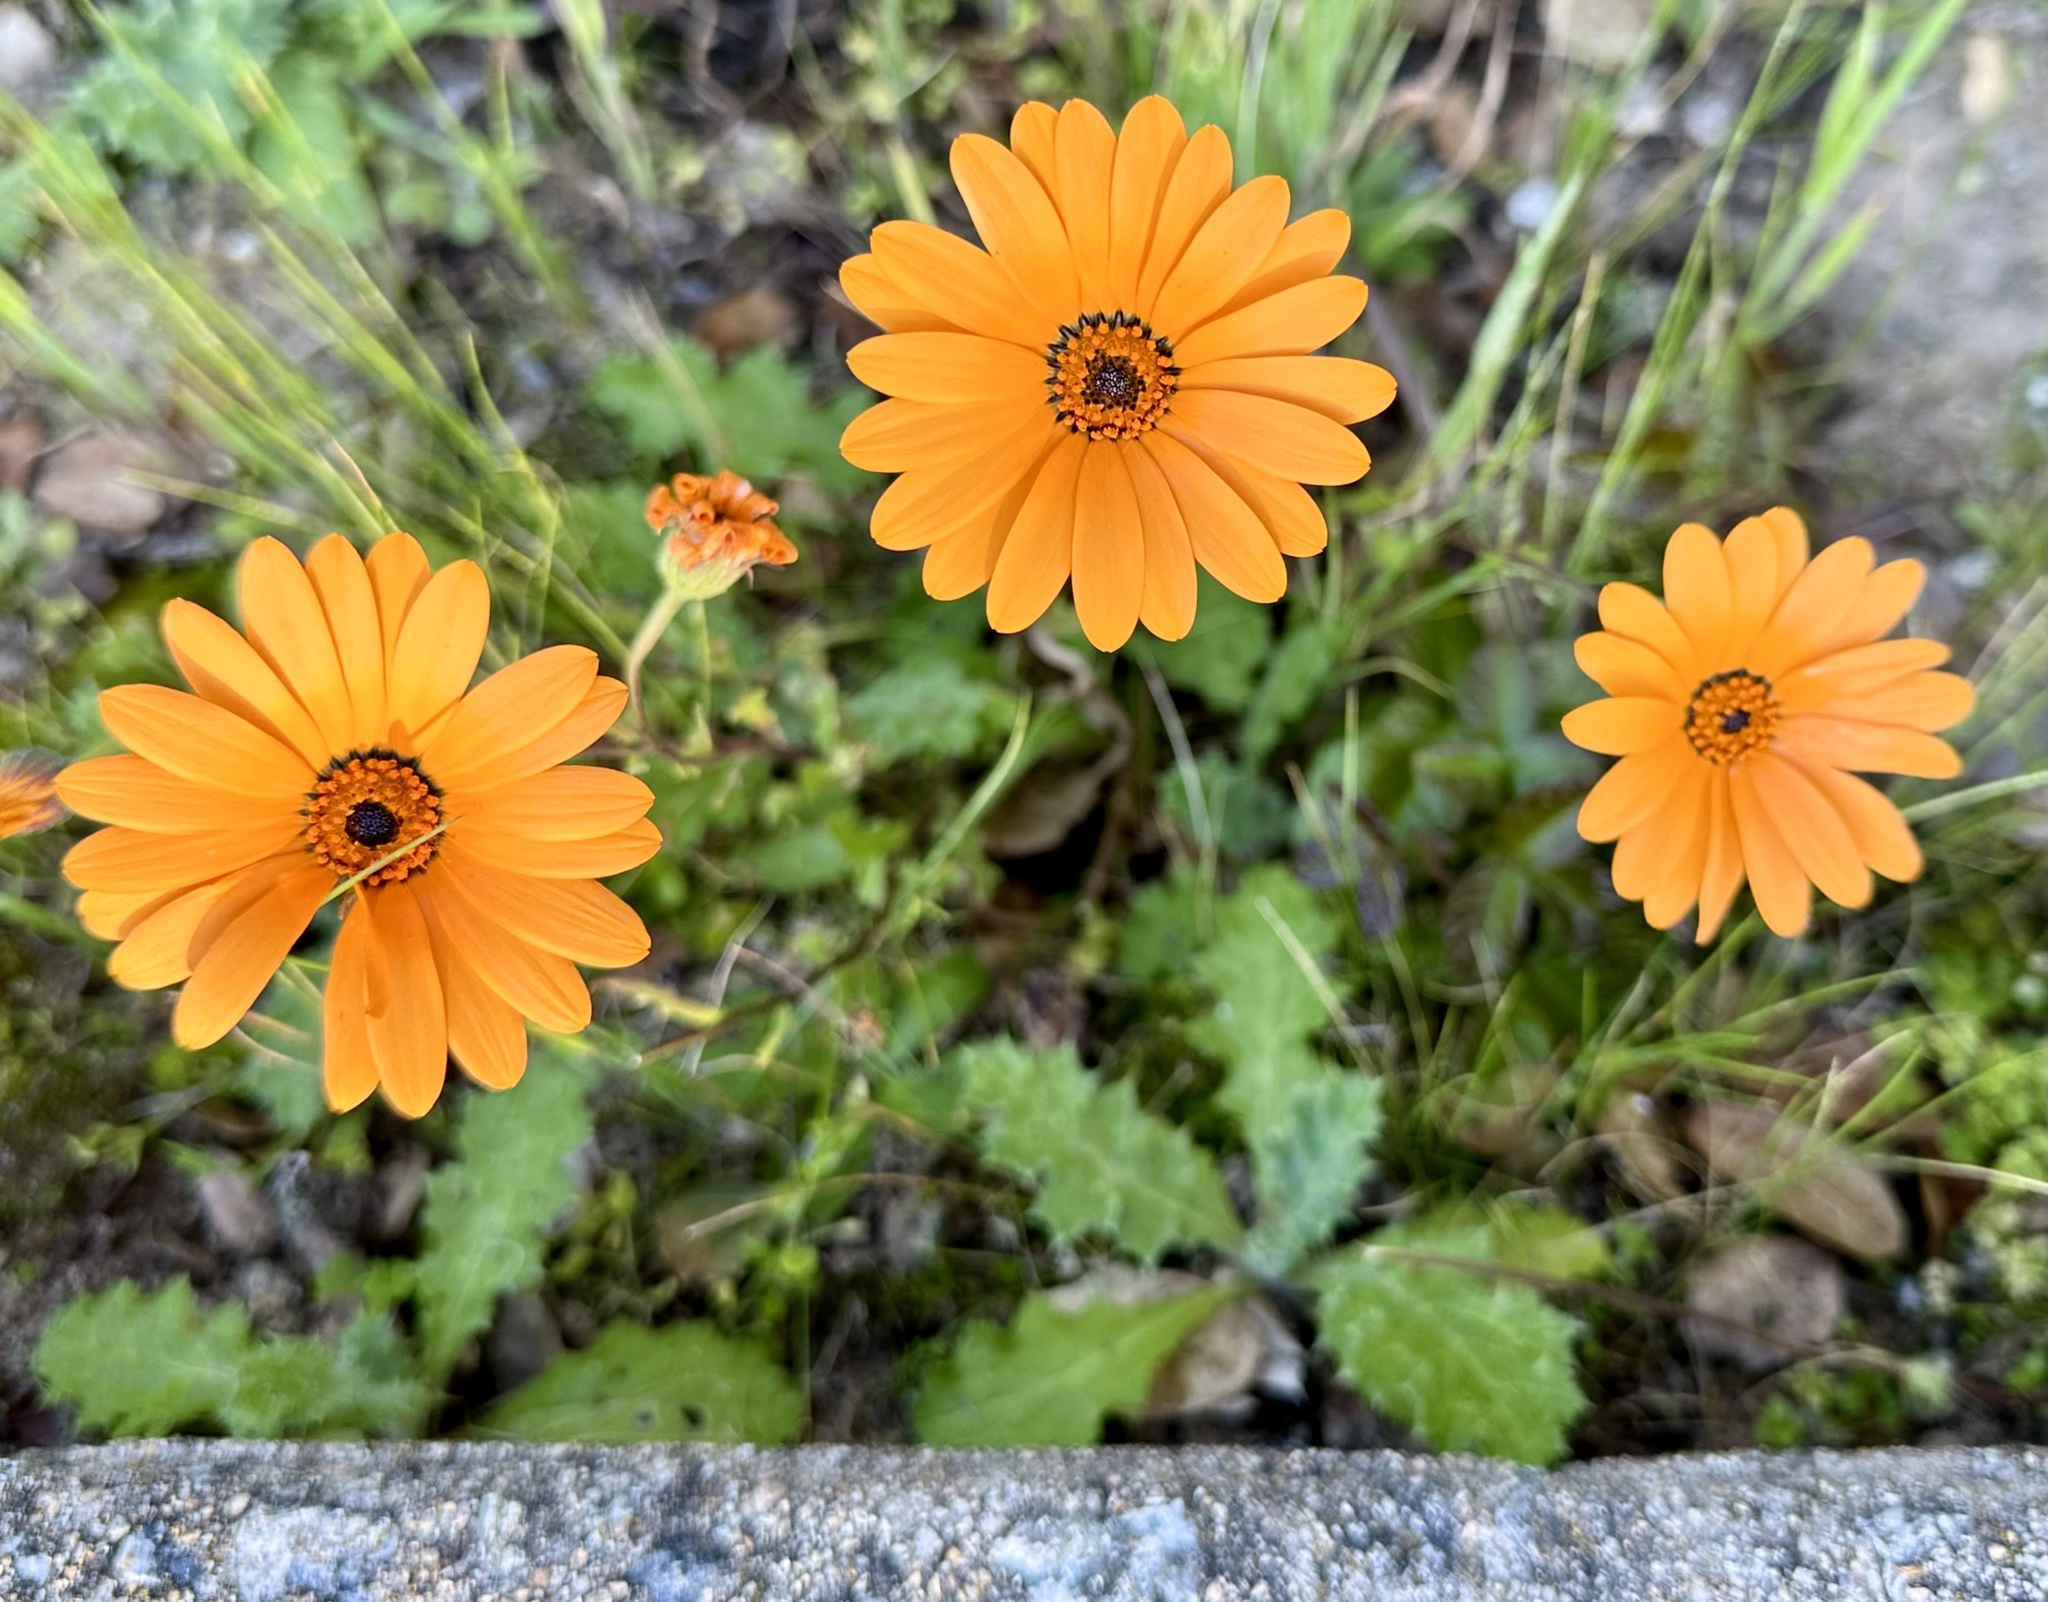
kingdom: Plantae
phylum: Tracheophyta
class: Magnoliopsida
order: Asterales
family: Asteraceae
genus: Dimorphotheca
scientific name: Dimorphotheca sinuata
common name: Glandular cape marigold
